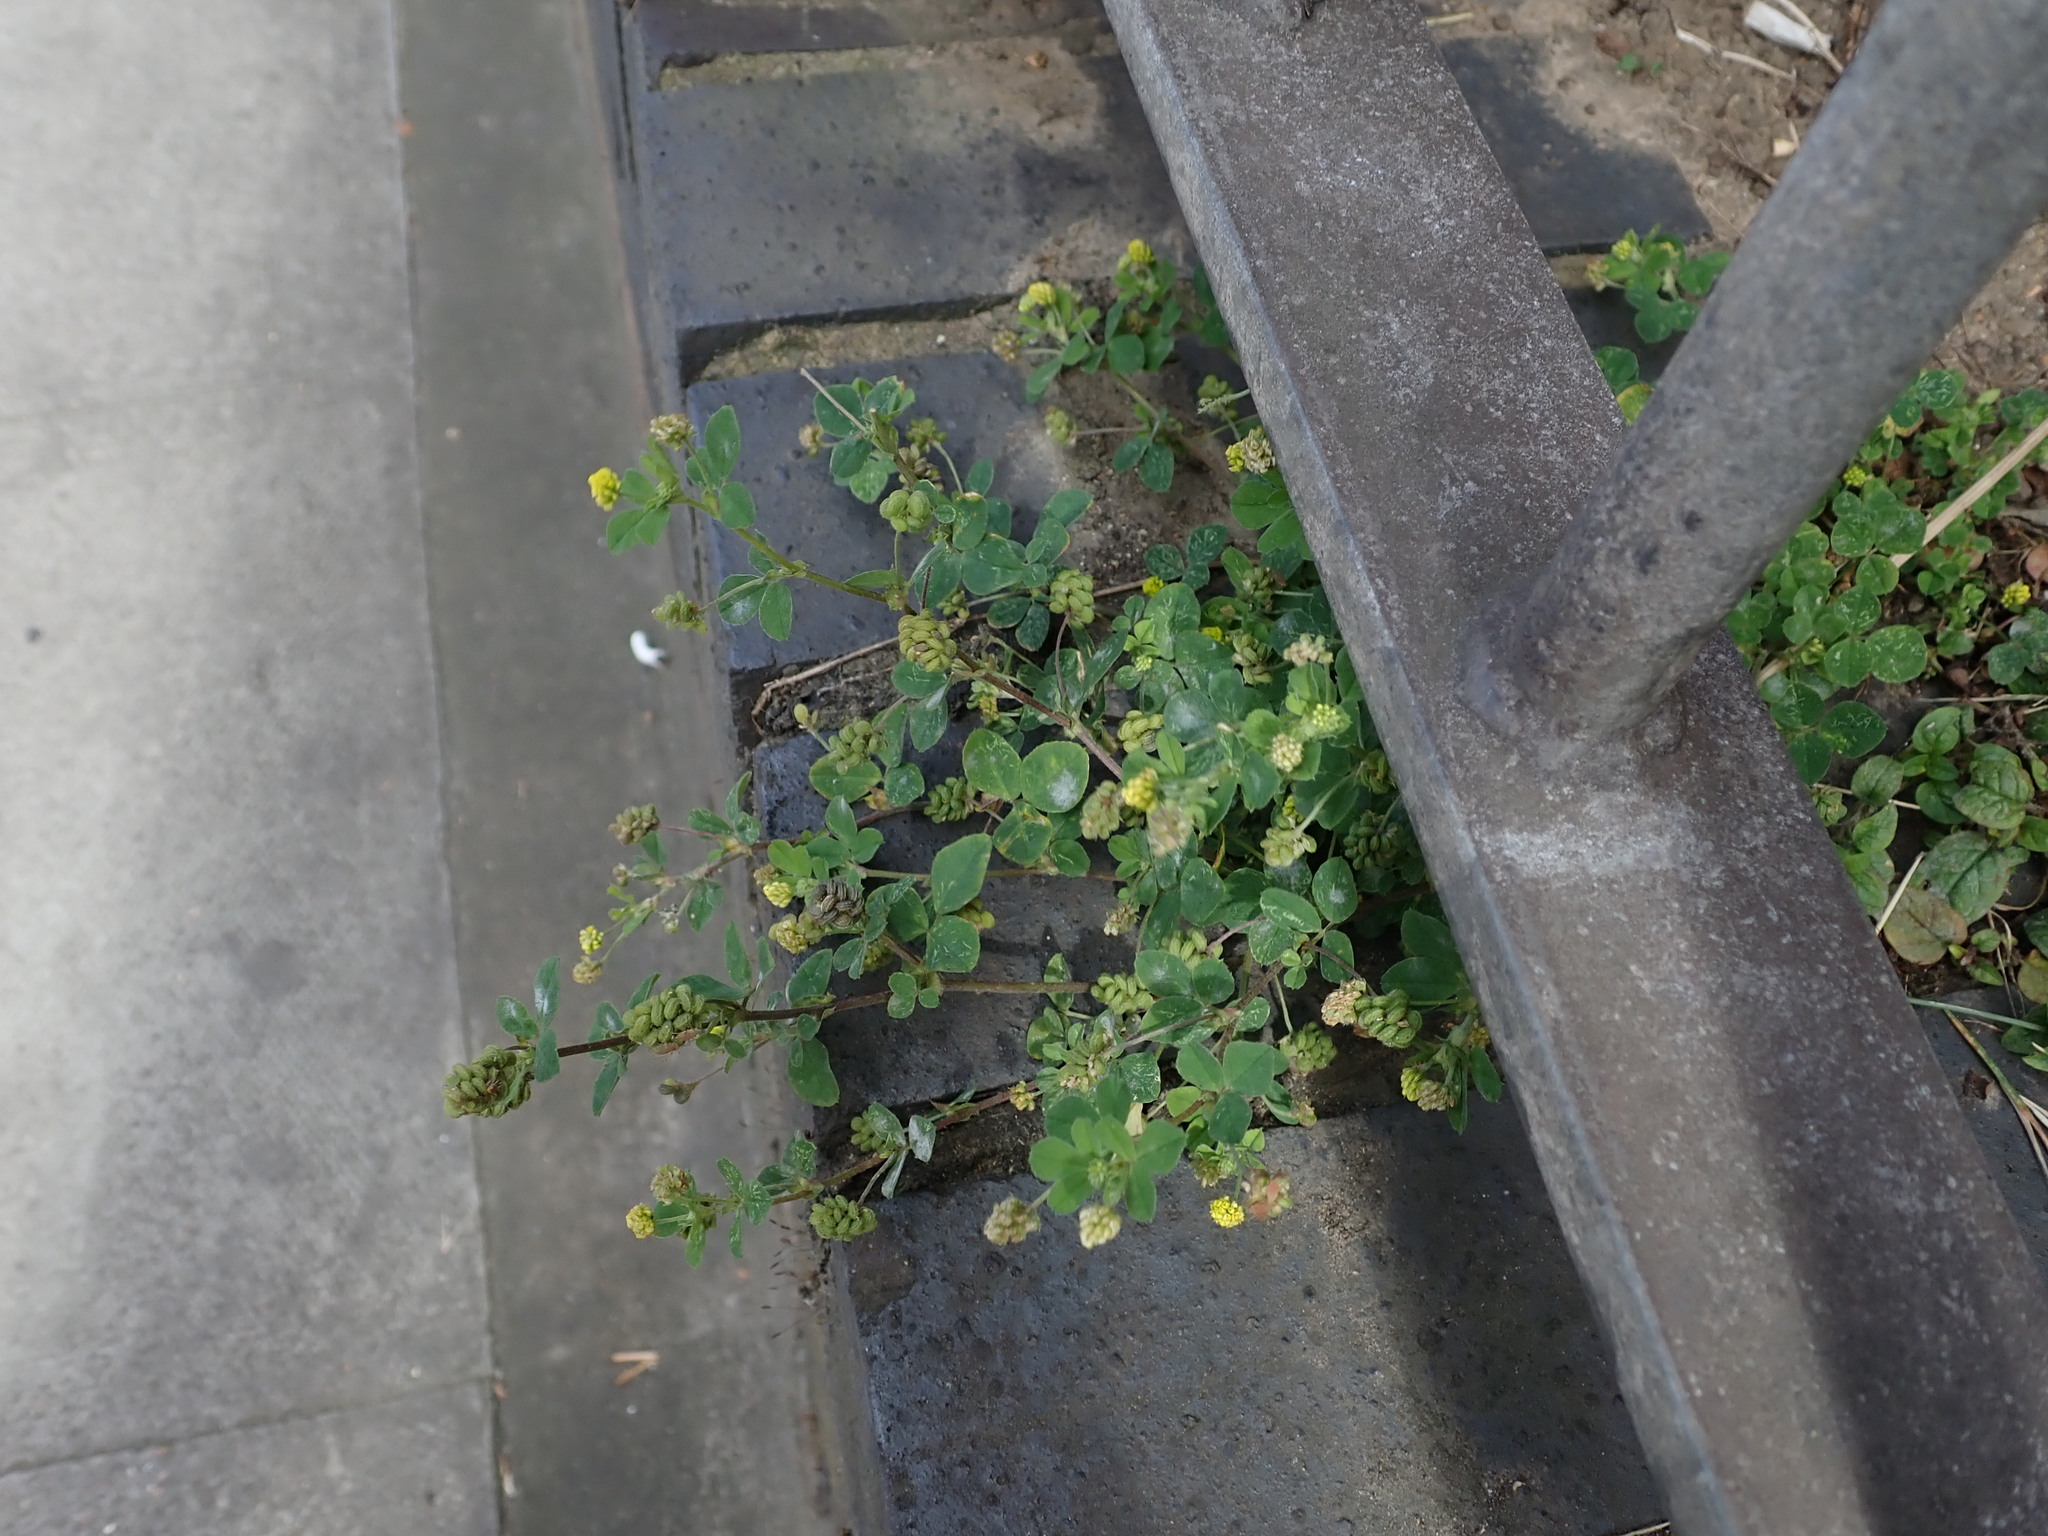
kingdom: Plantae
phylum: Tracheophyta
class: Magnoliopsida
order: Fabales
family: Fabaceae
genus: Medicago
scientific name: Medicago lupulina
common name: Black medick
